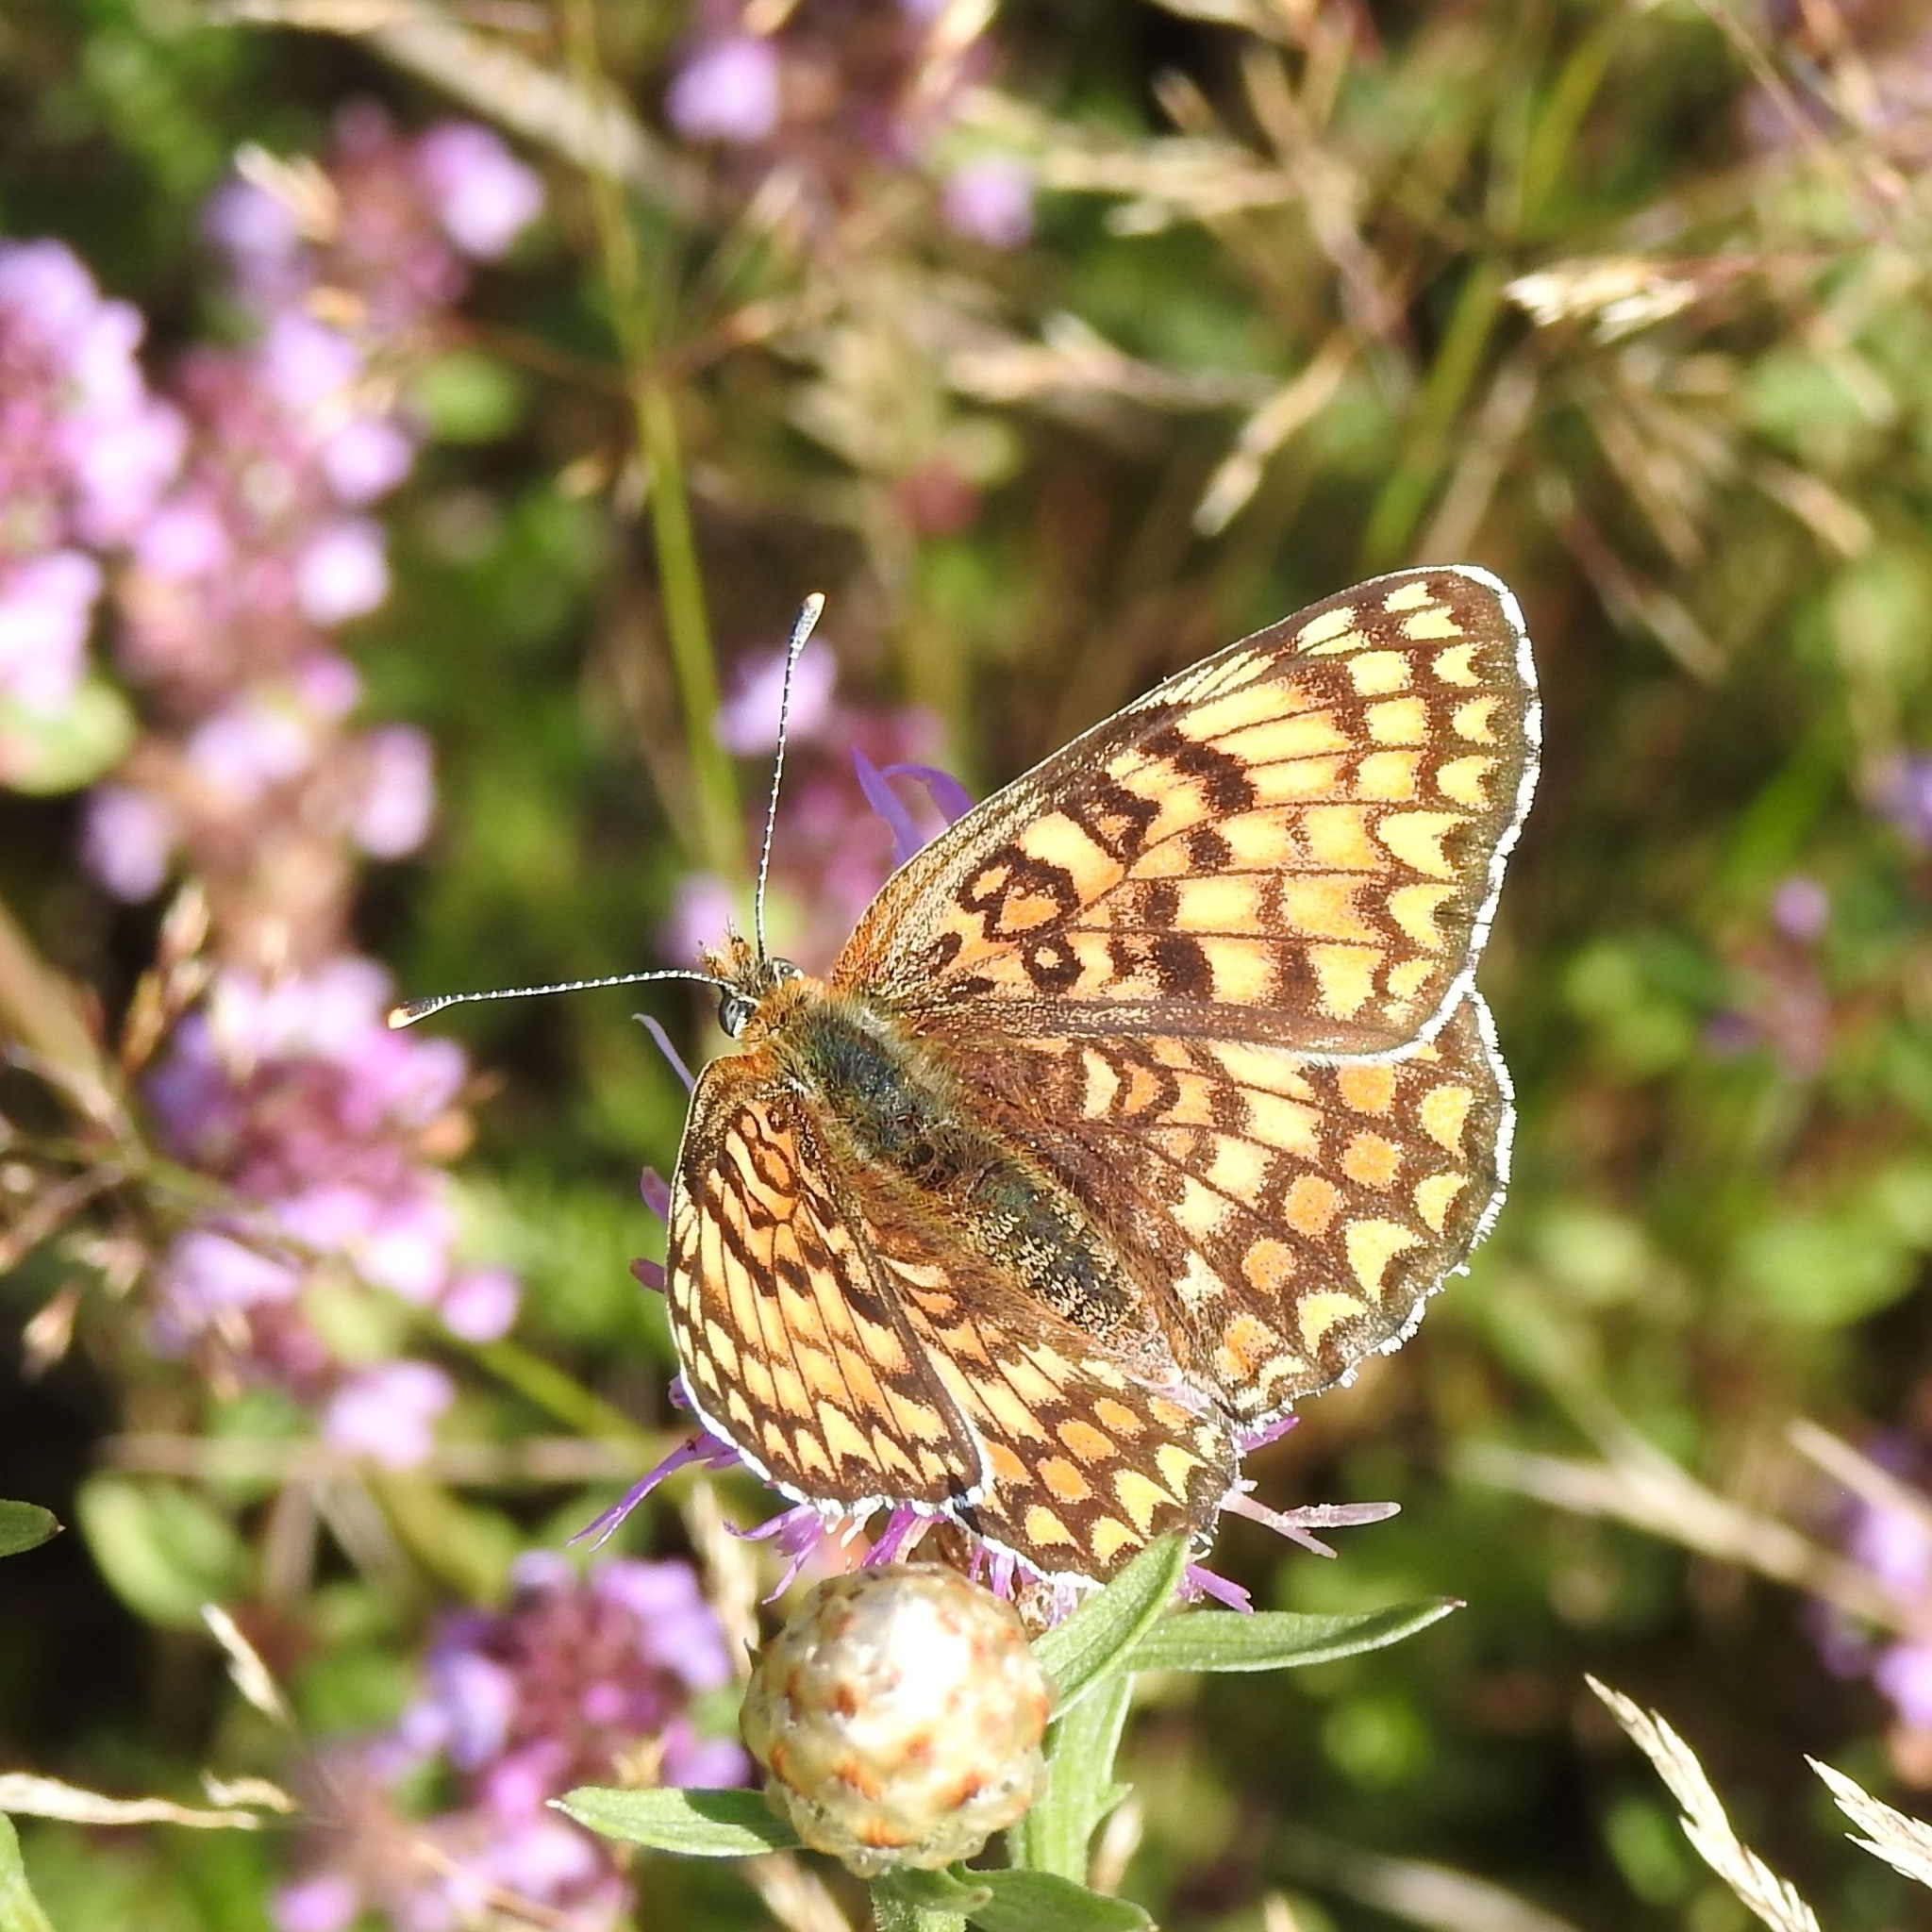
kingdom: Animalia
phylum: Arthropoda
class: Insecta
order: Lepidoptera
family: Nymphalidae
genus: Melitaea
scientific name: Melitaea phoebe
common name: Knapweed fritillary
